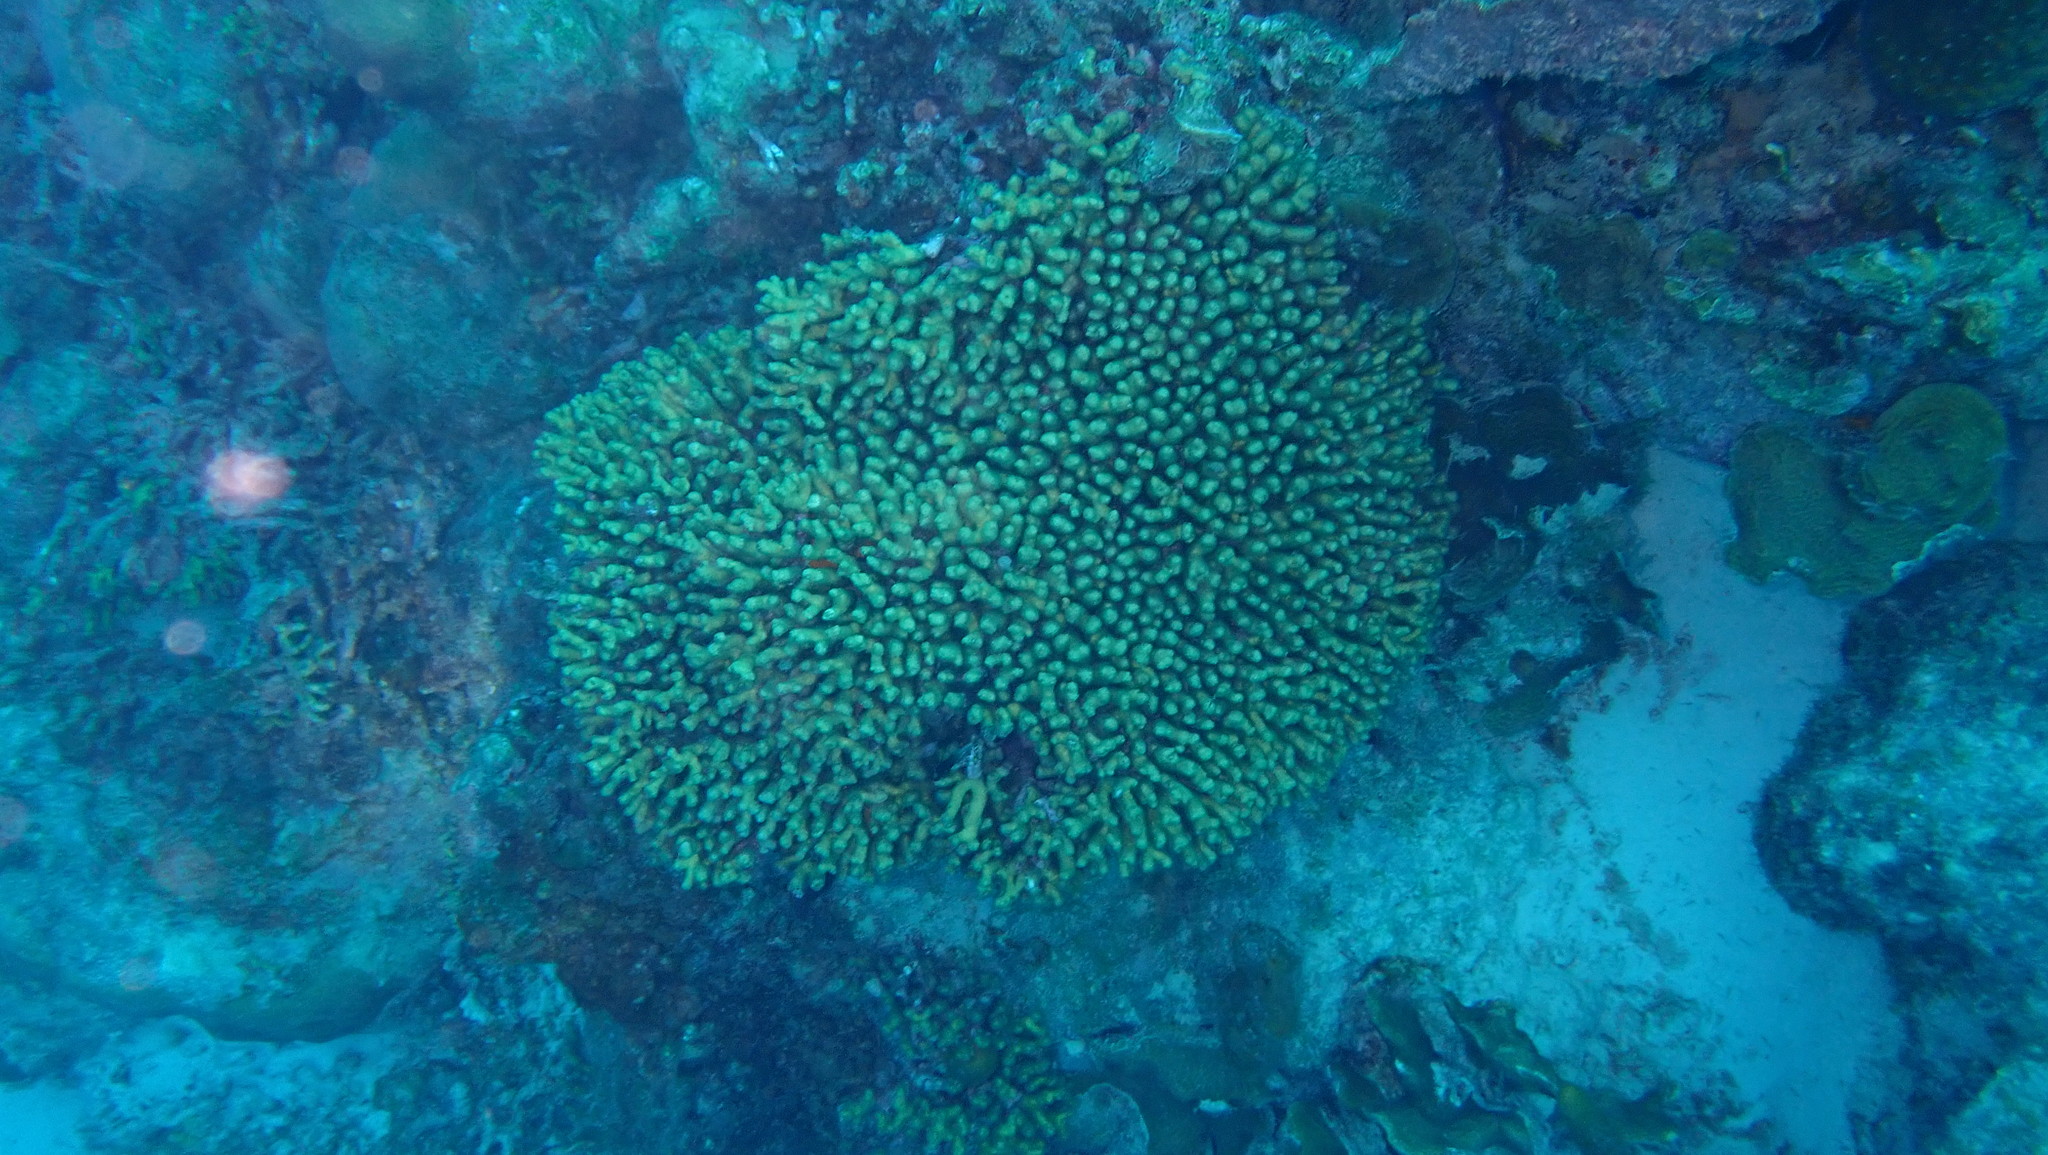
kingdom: Animalia
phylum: Cnidaria
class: Anthozoa
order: Scleractinia
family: Pocilloporidae
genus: Madracis
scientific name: Madracis auretenra
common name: Yellow pencil coral
